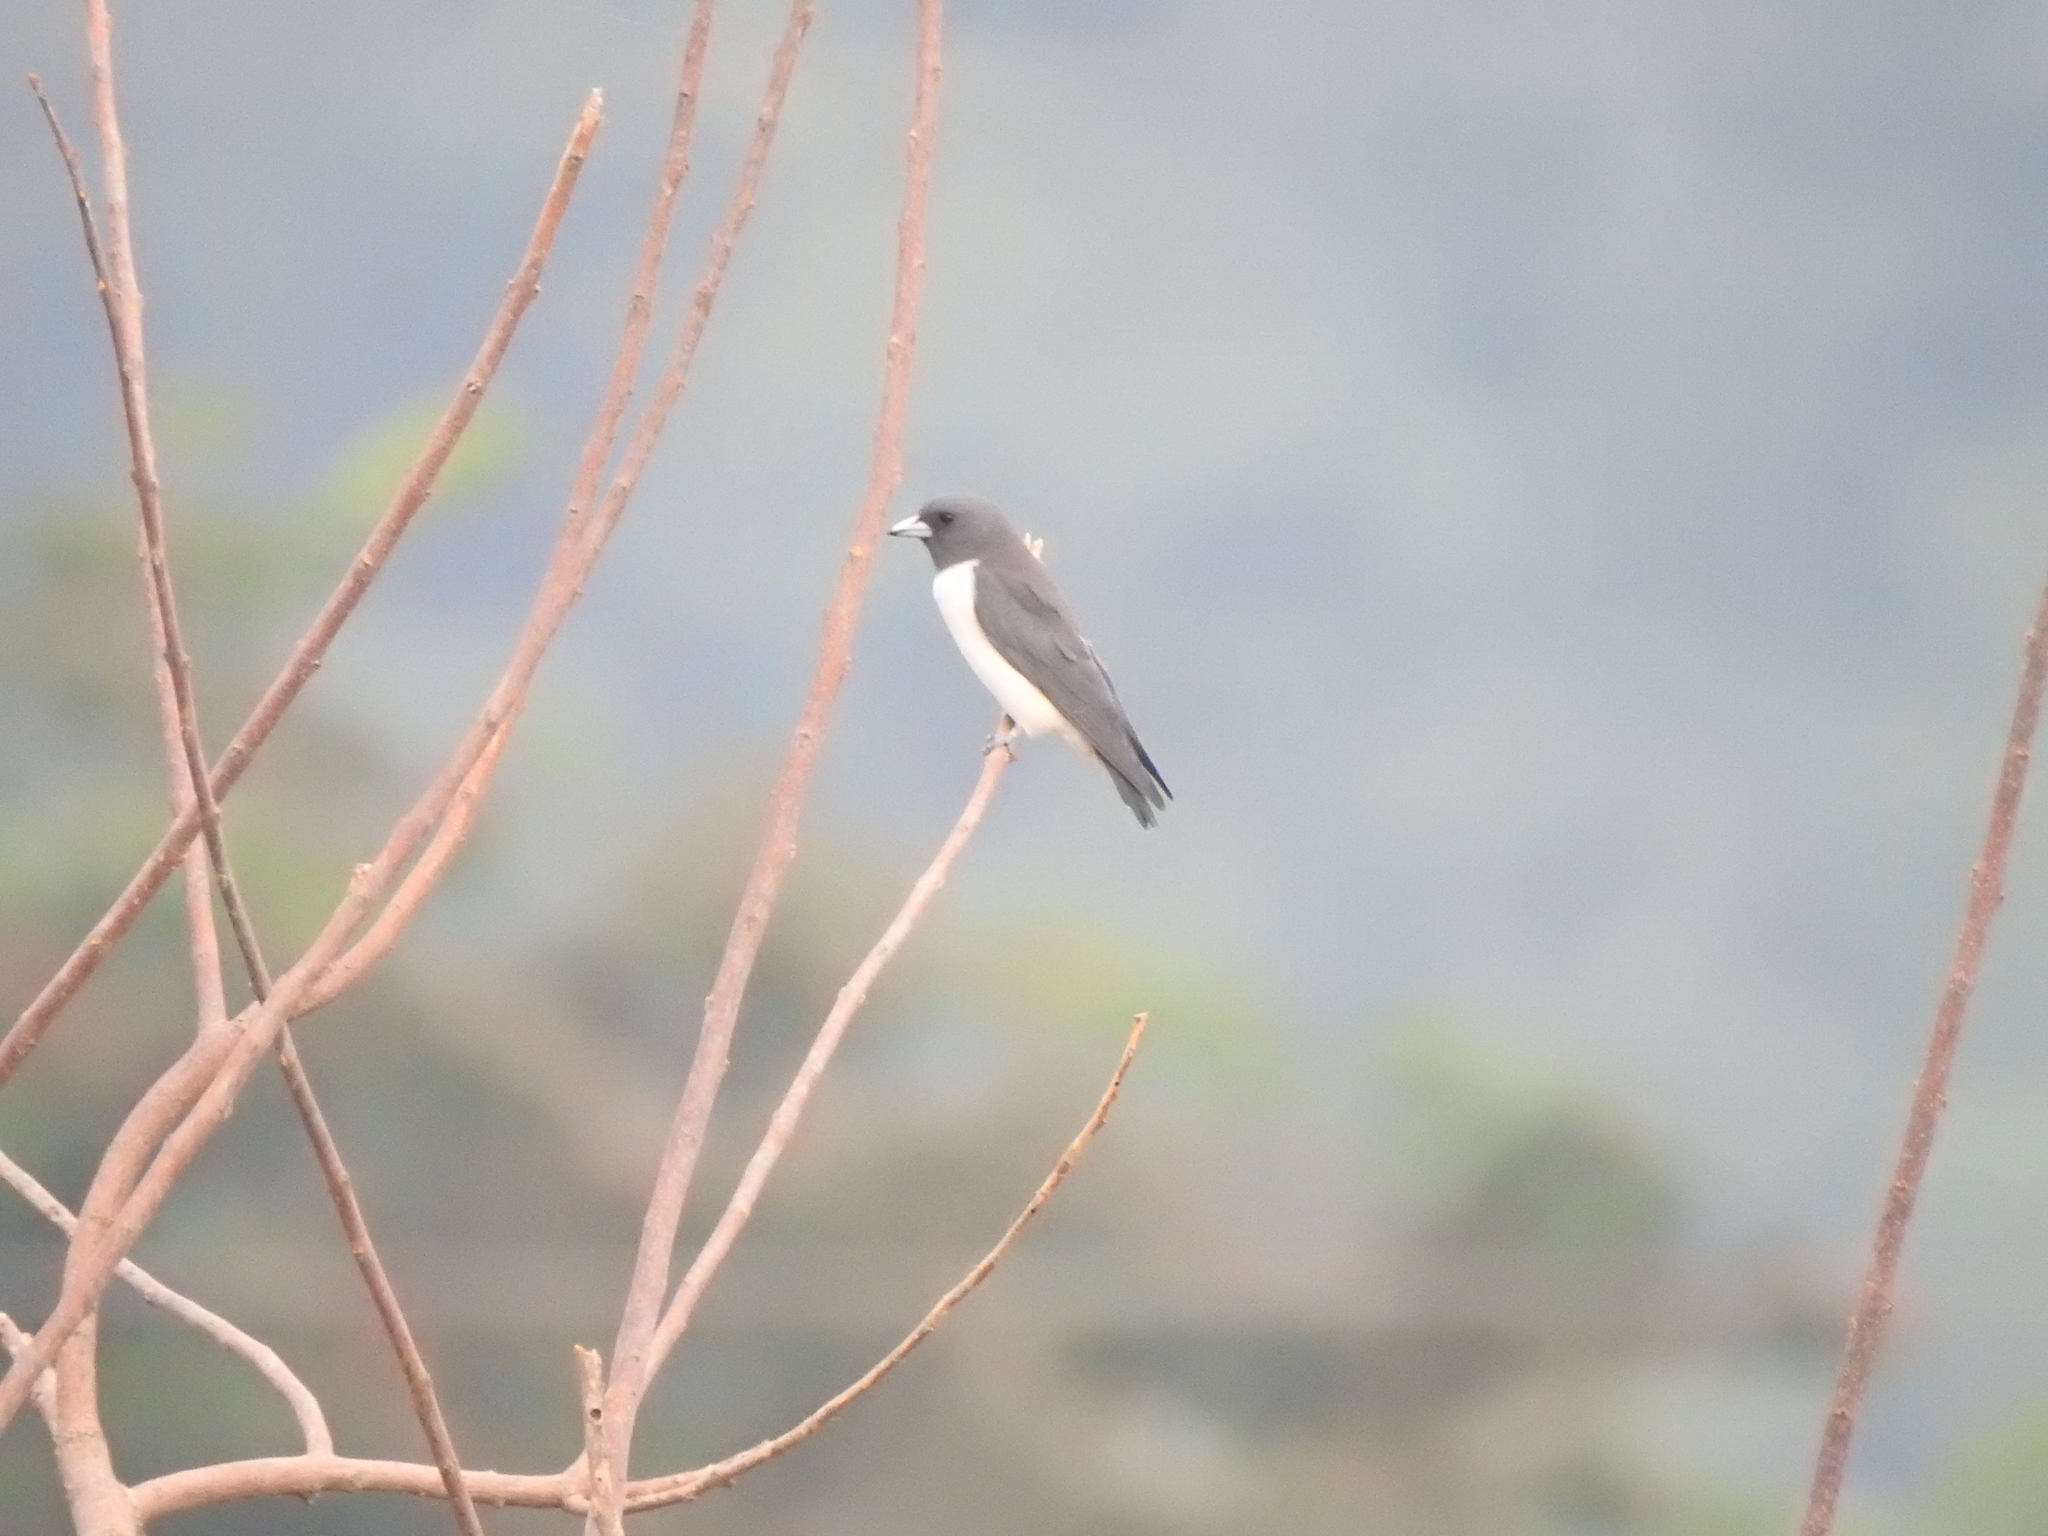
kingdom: Animalia
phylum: Chordata
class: Aves
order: Passeriformes
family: Artamidae
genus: Artamus
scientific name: Artamus leucoryn
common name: White-breasted woodswallow
